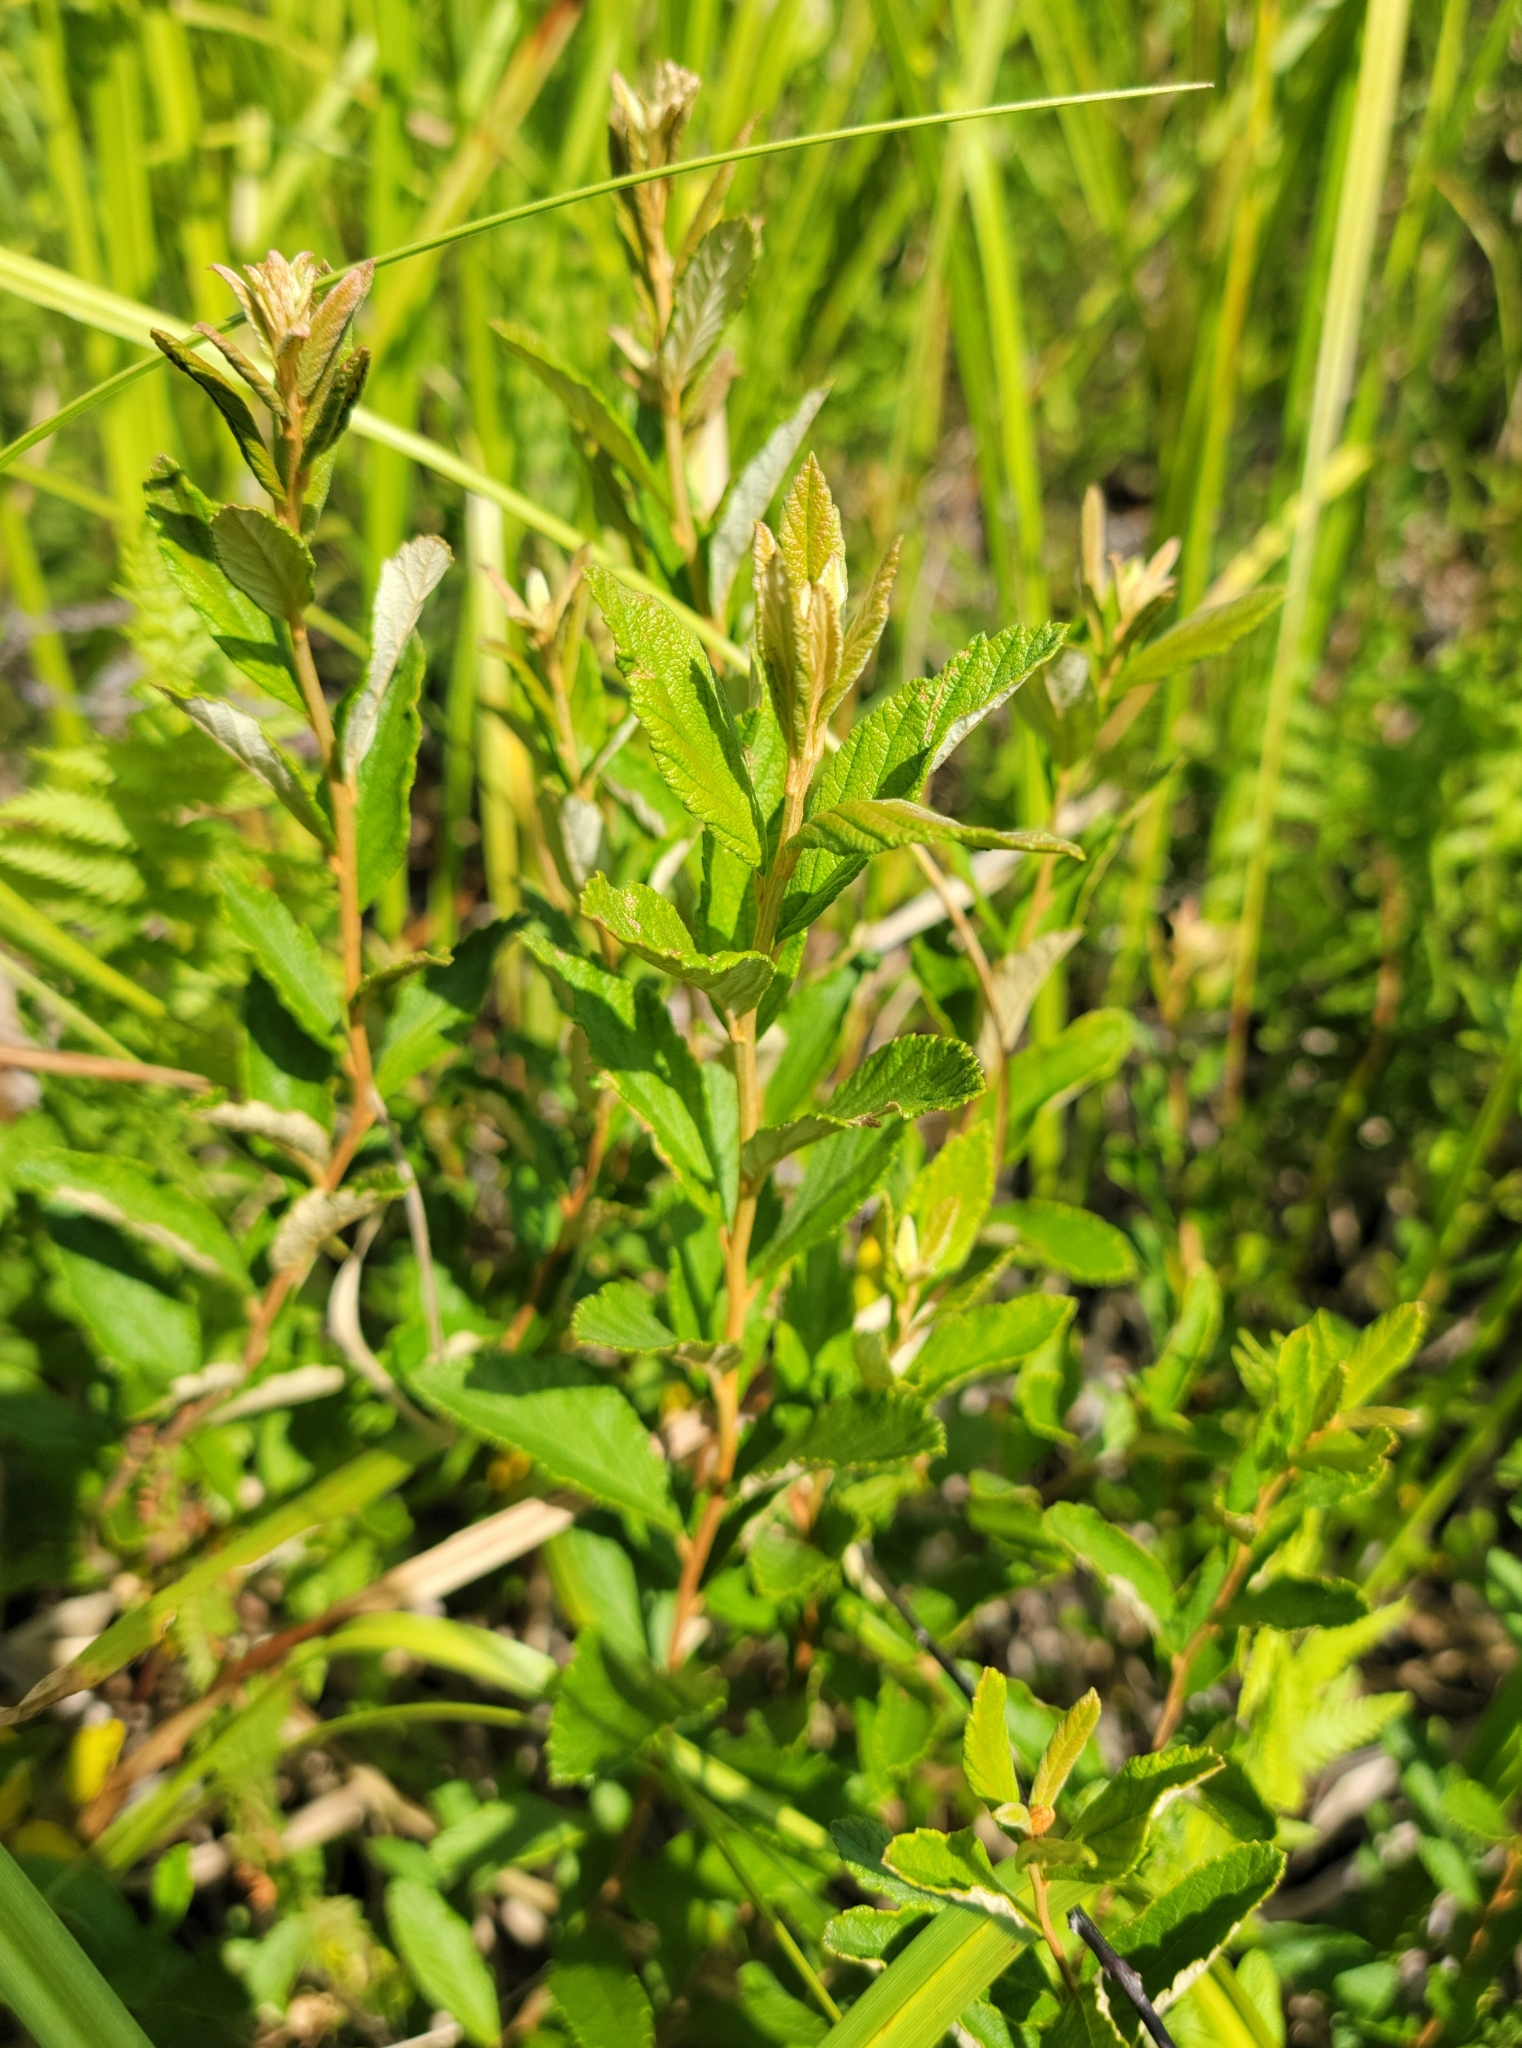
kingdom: Plantae
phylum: Tracheophyta
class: Magnoliopsida
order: Rosales
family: Rosaceae
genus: Spiraea
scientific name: Spiraea tomentosa
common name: Hardhack
